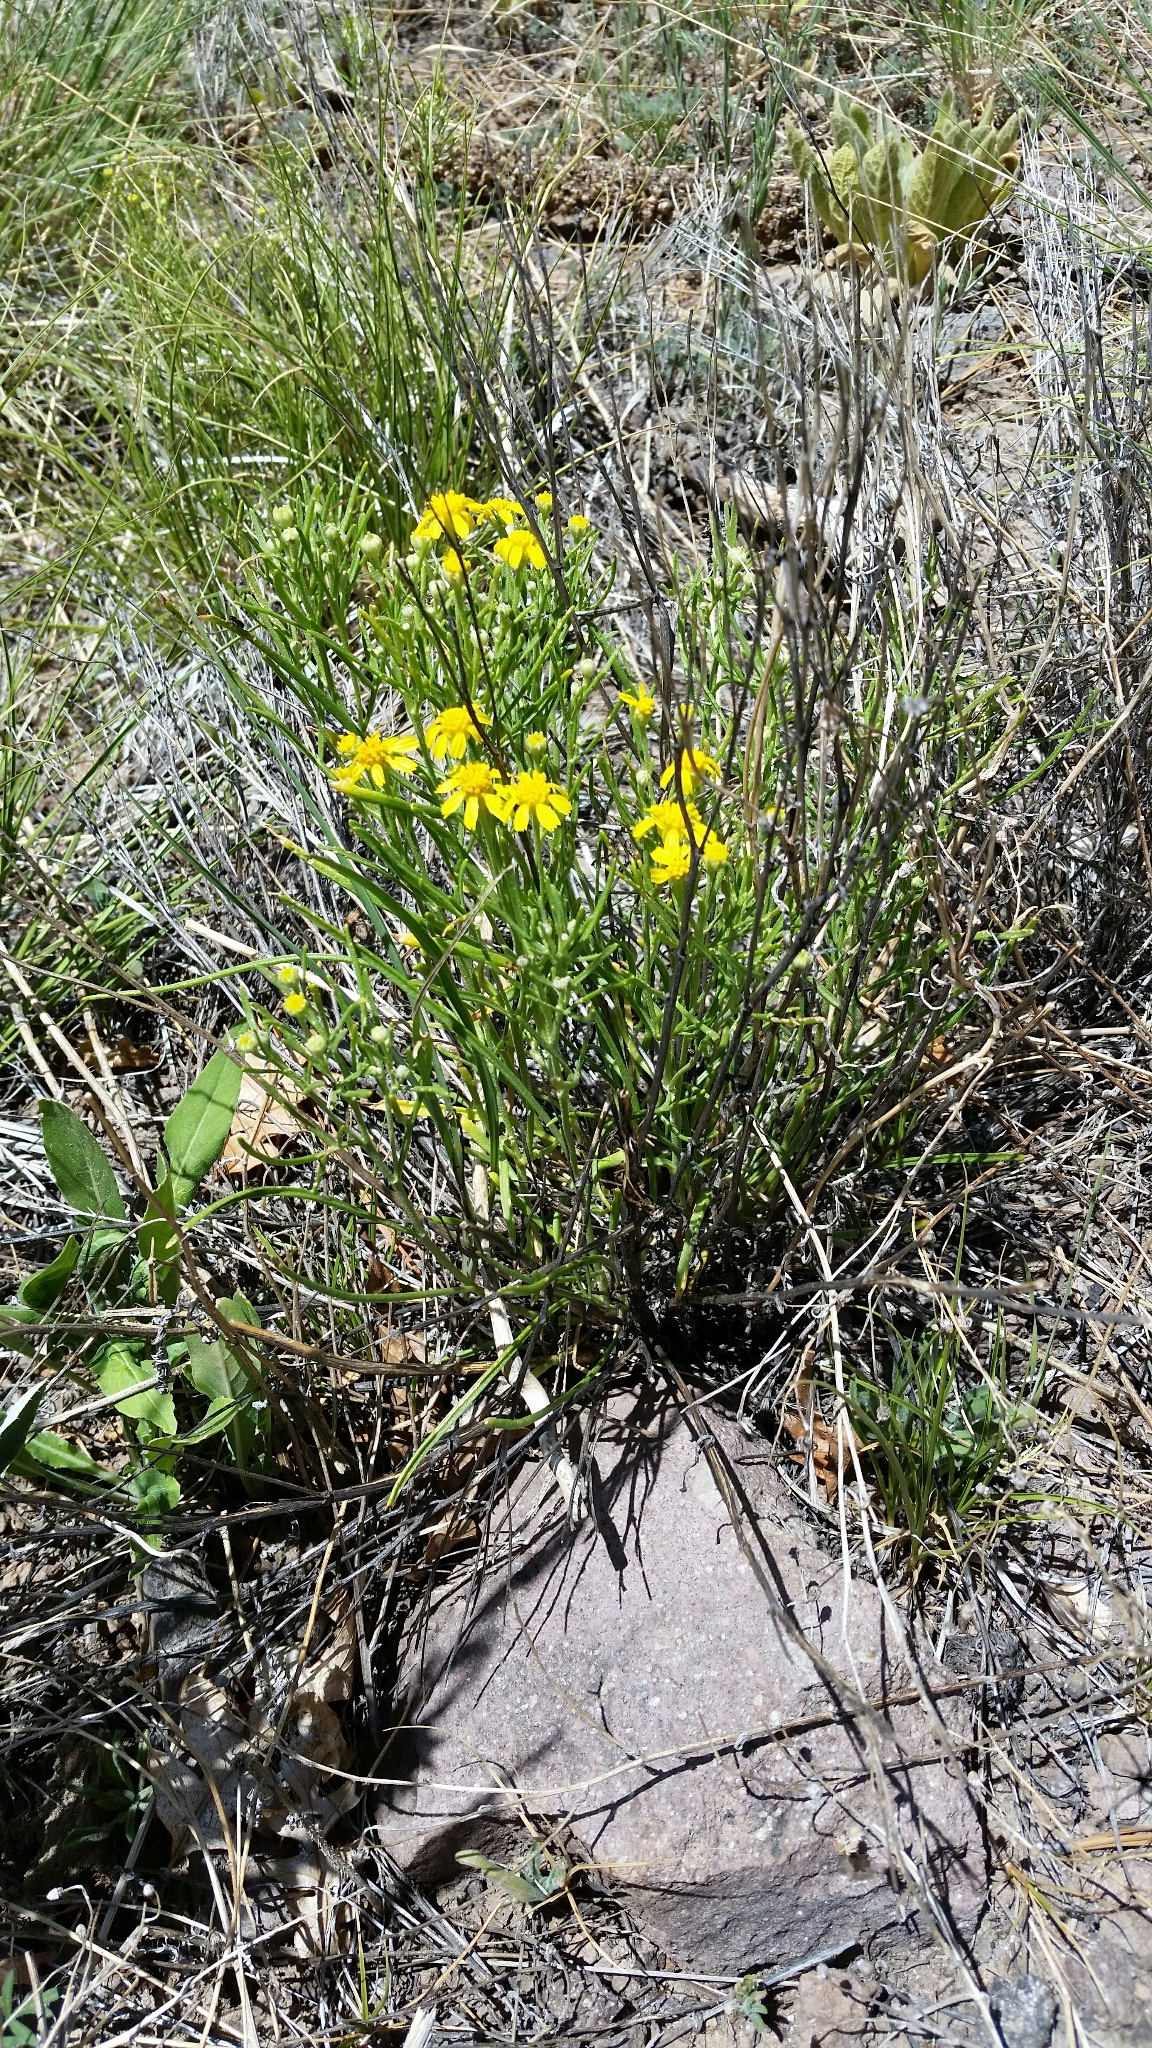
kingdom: Plantae
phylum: Tracheophyta
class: Magnoliopsida
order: Asterales
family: Asteraceae
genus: Hymenoxys
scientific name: Hymenoxys richardsonii
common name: Pingue rubberweed
